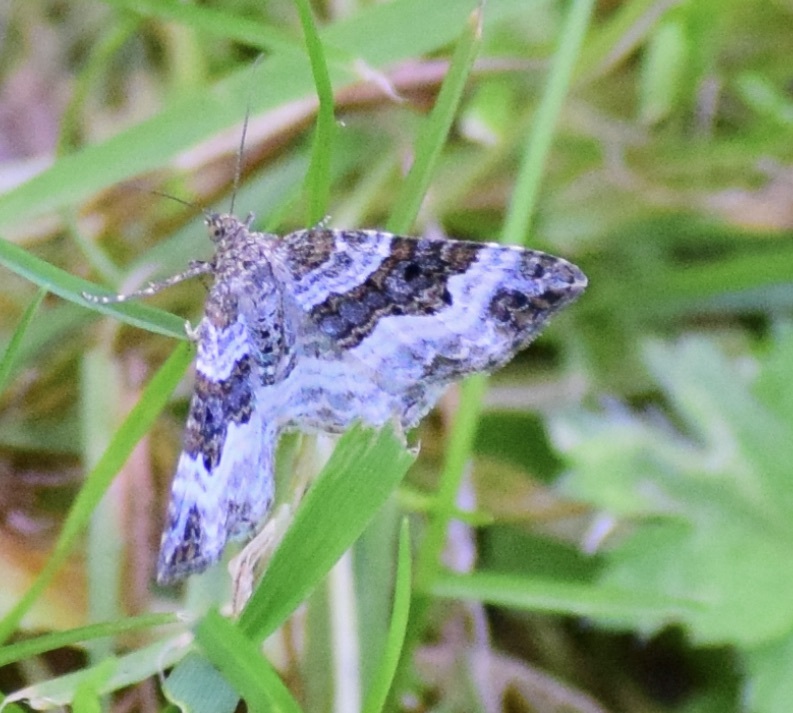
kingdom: Animalia
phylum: Arthropoda
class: Insecta
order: Lepidoptera
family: Geometridae
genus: Epirrhoe
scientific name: Epirrhoe alternata
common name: Common carpet
